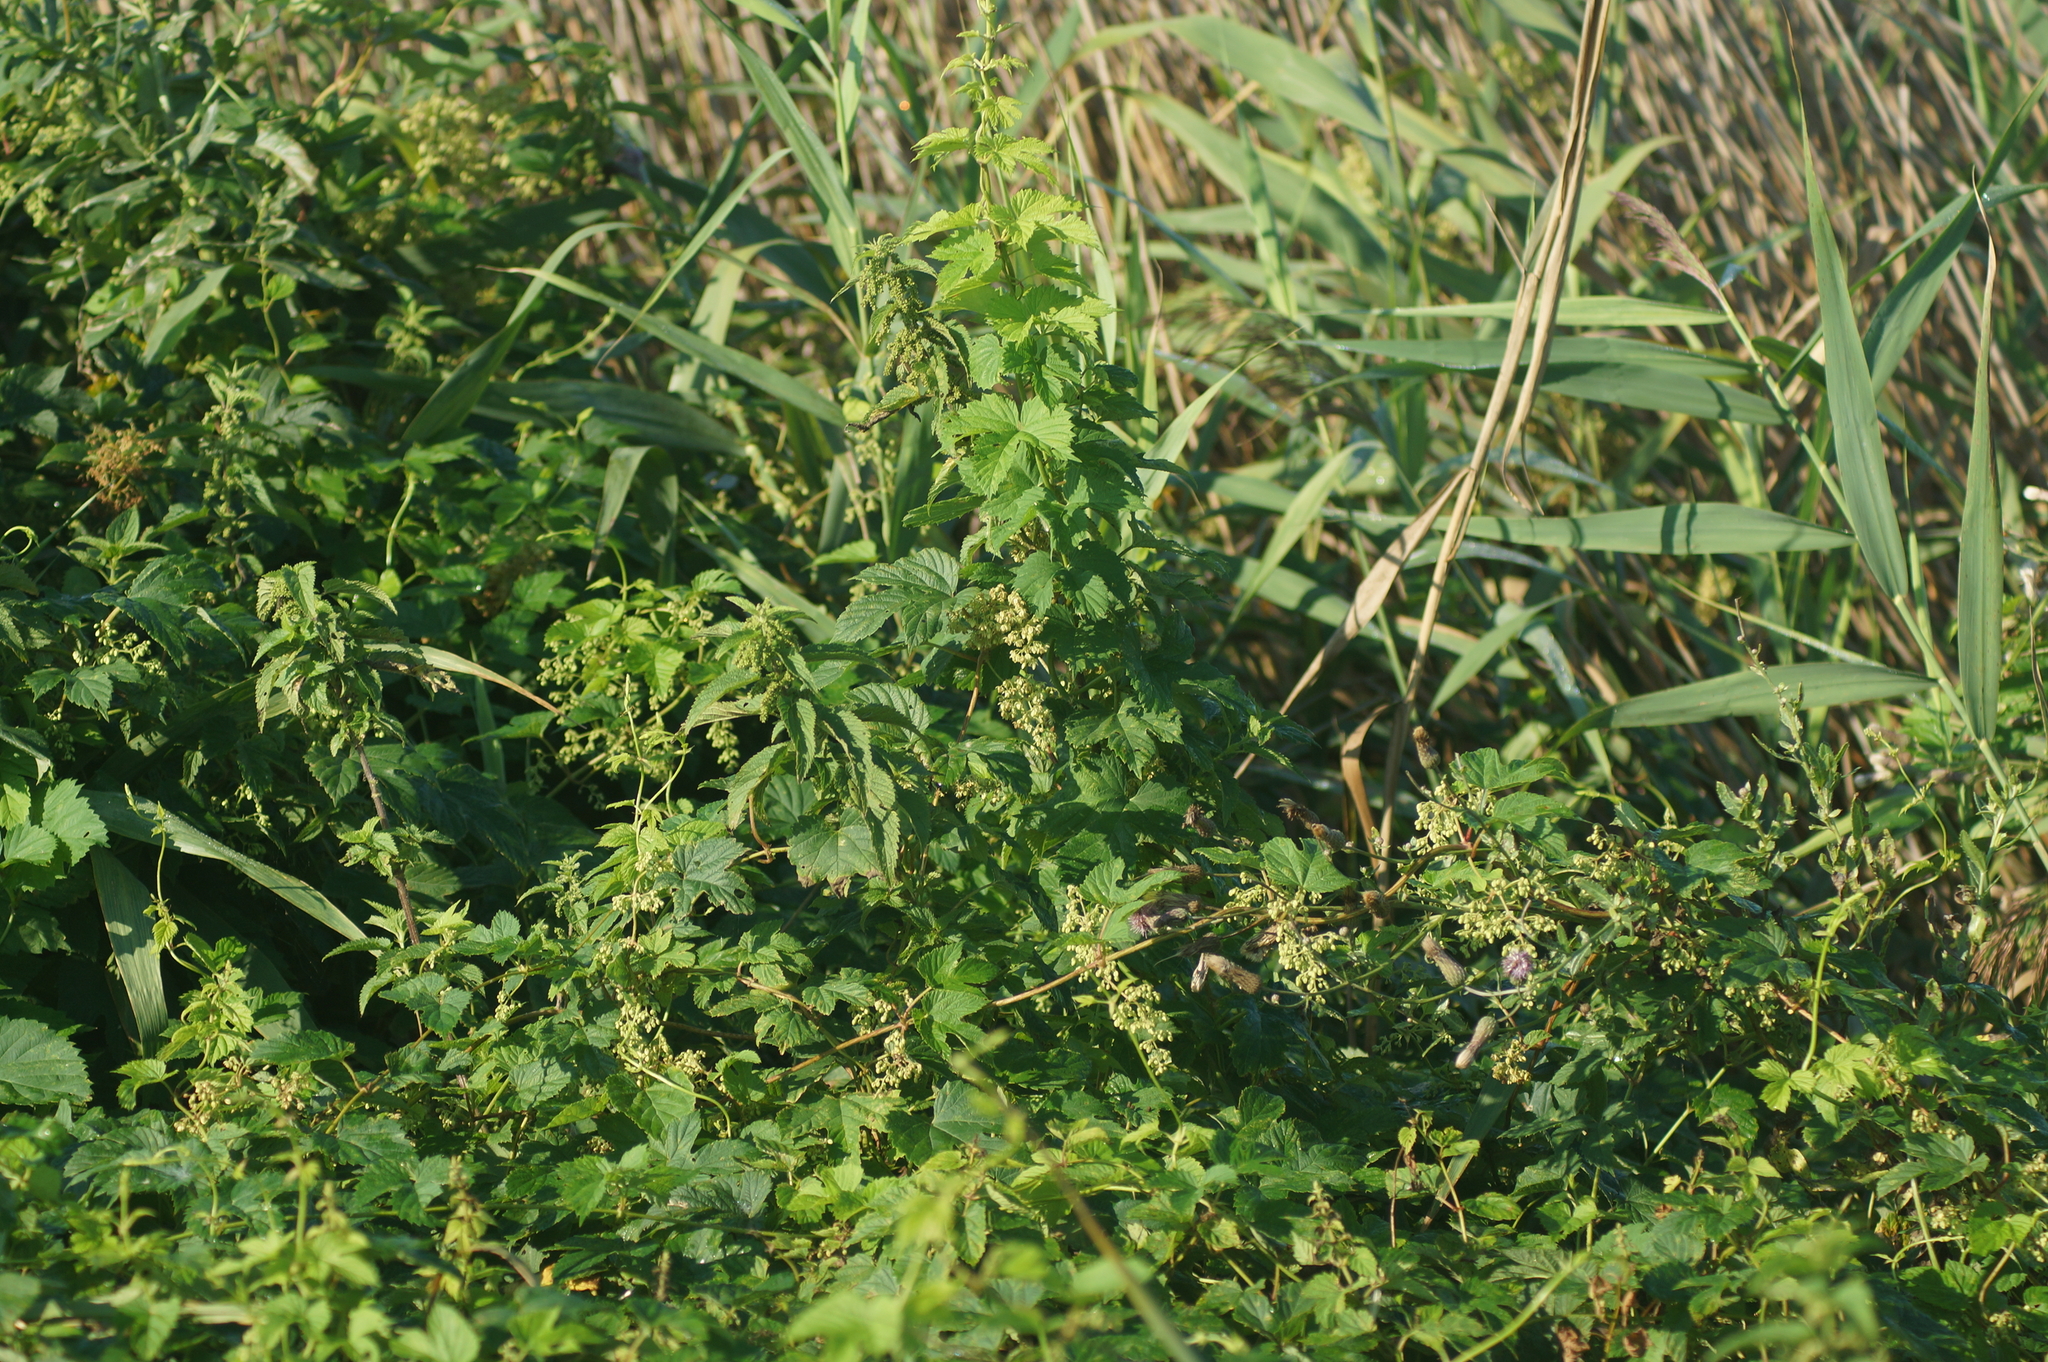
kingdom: Plantae
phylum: Tracheophyta
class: Magnoliopsida
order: Rosales
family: Cannabaceae
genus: Humulus
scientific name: Humulus lupulus
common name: Hop
